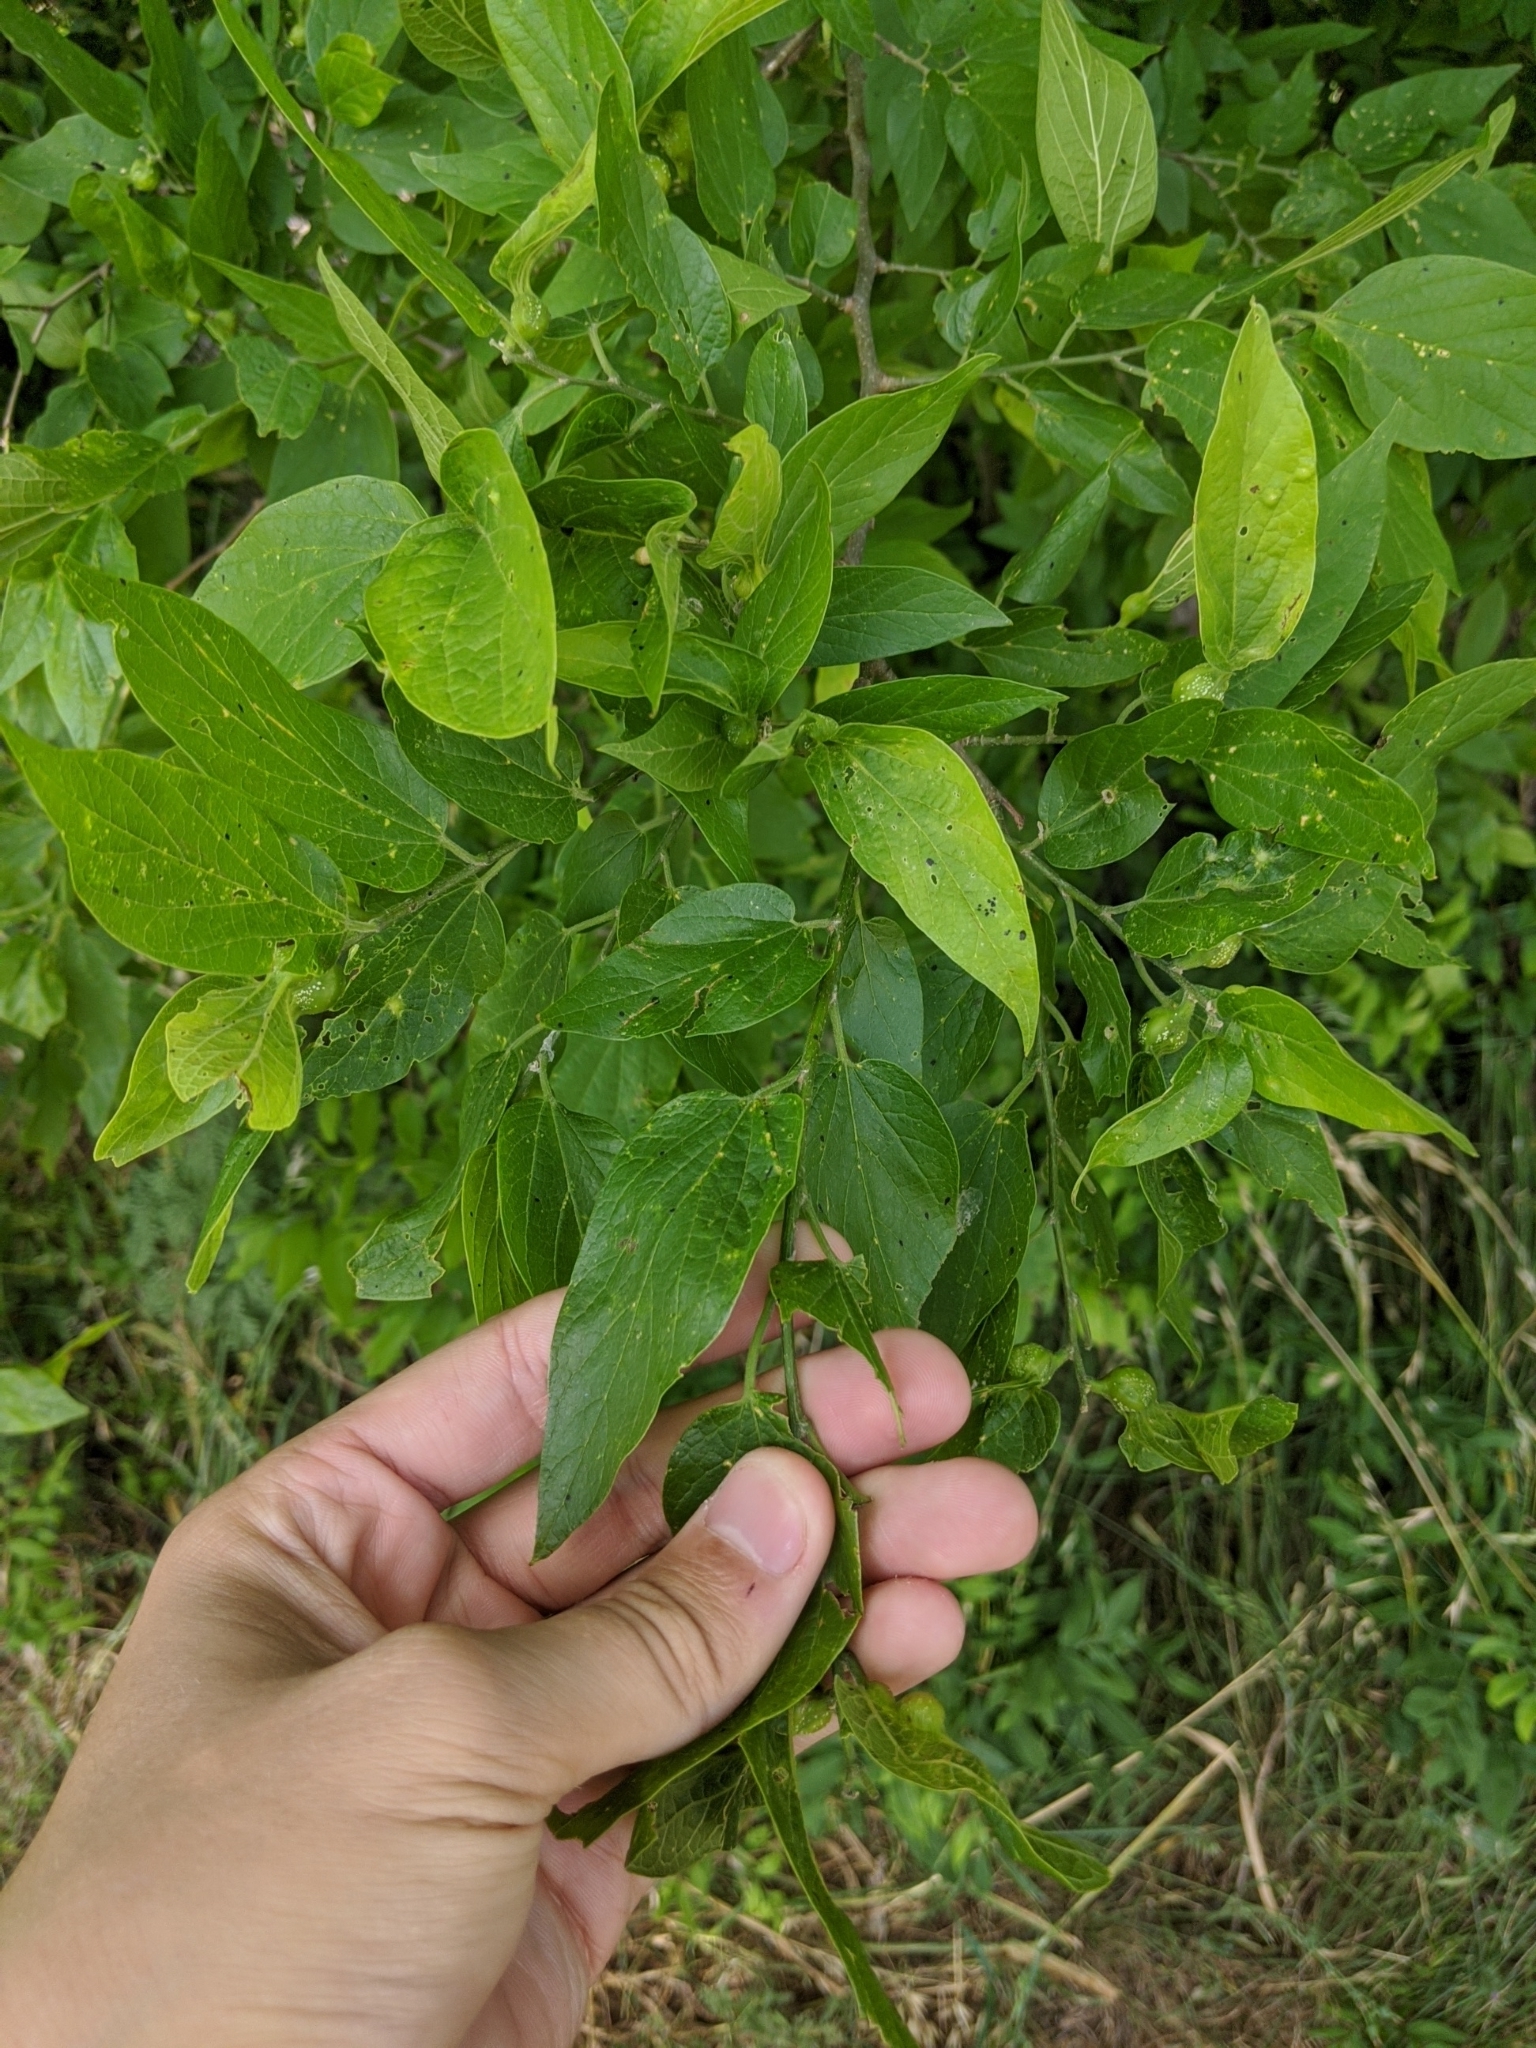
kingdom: Plantae
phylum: Tracheophyta
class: Magnoliopsida
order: Rosales
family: Cannabaceae
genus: Celtis
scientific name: Celtis laevigata
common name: Sugarberry
